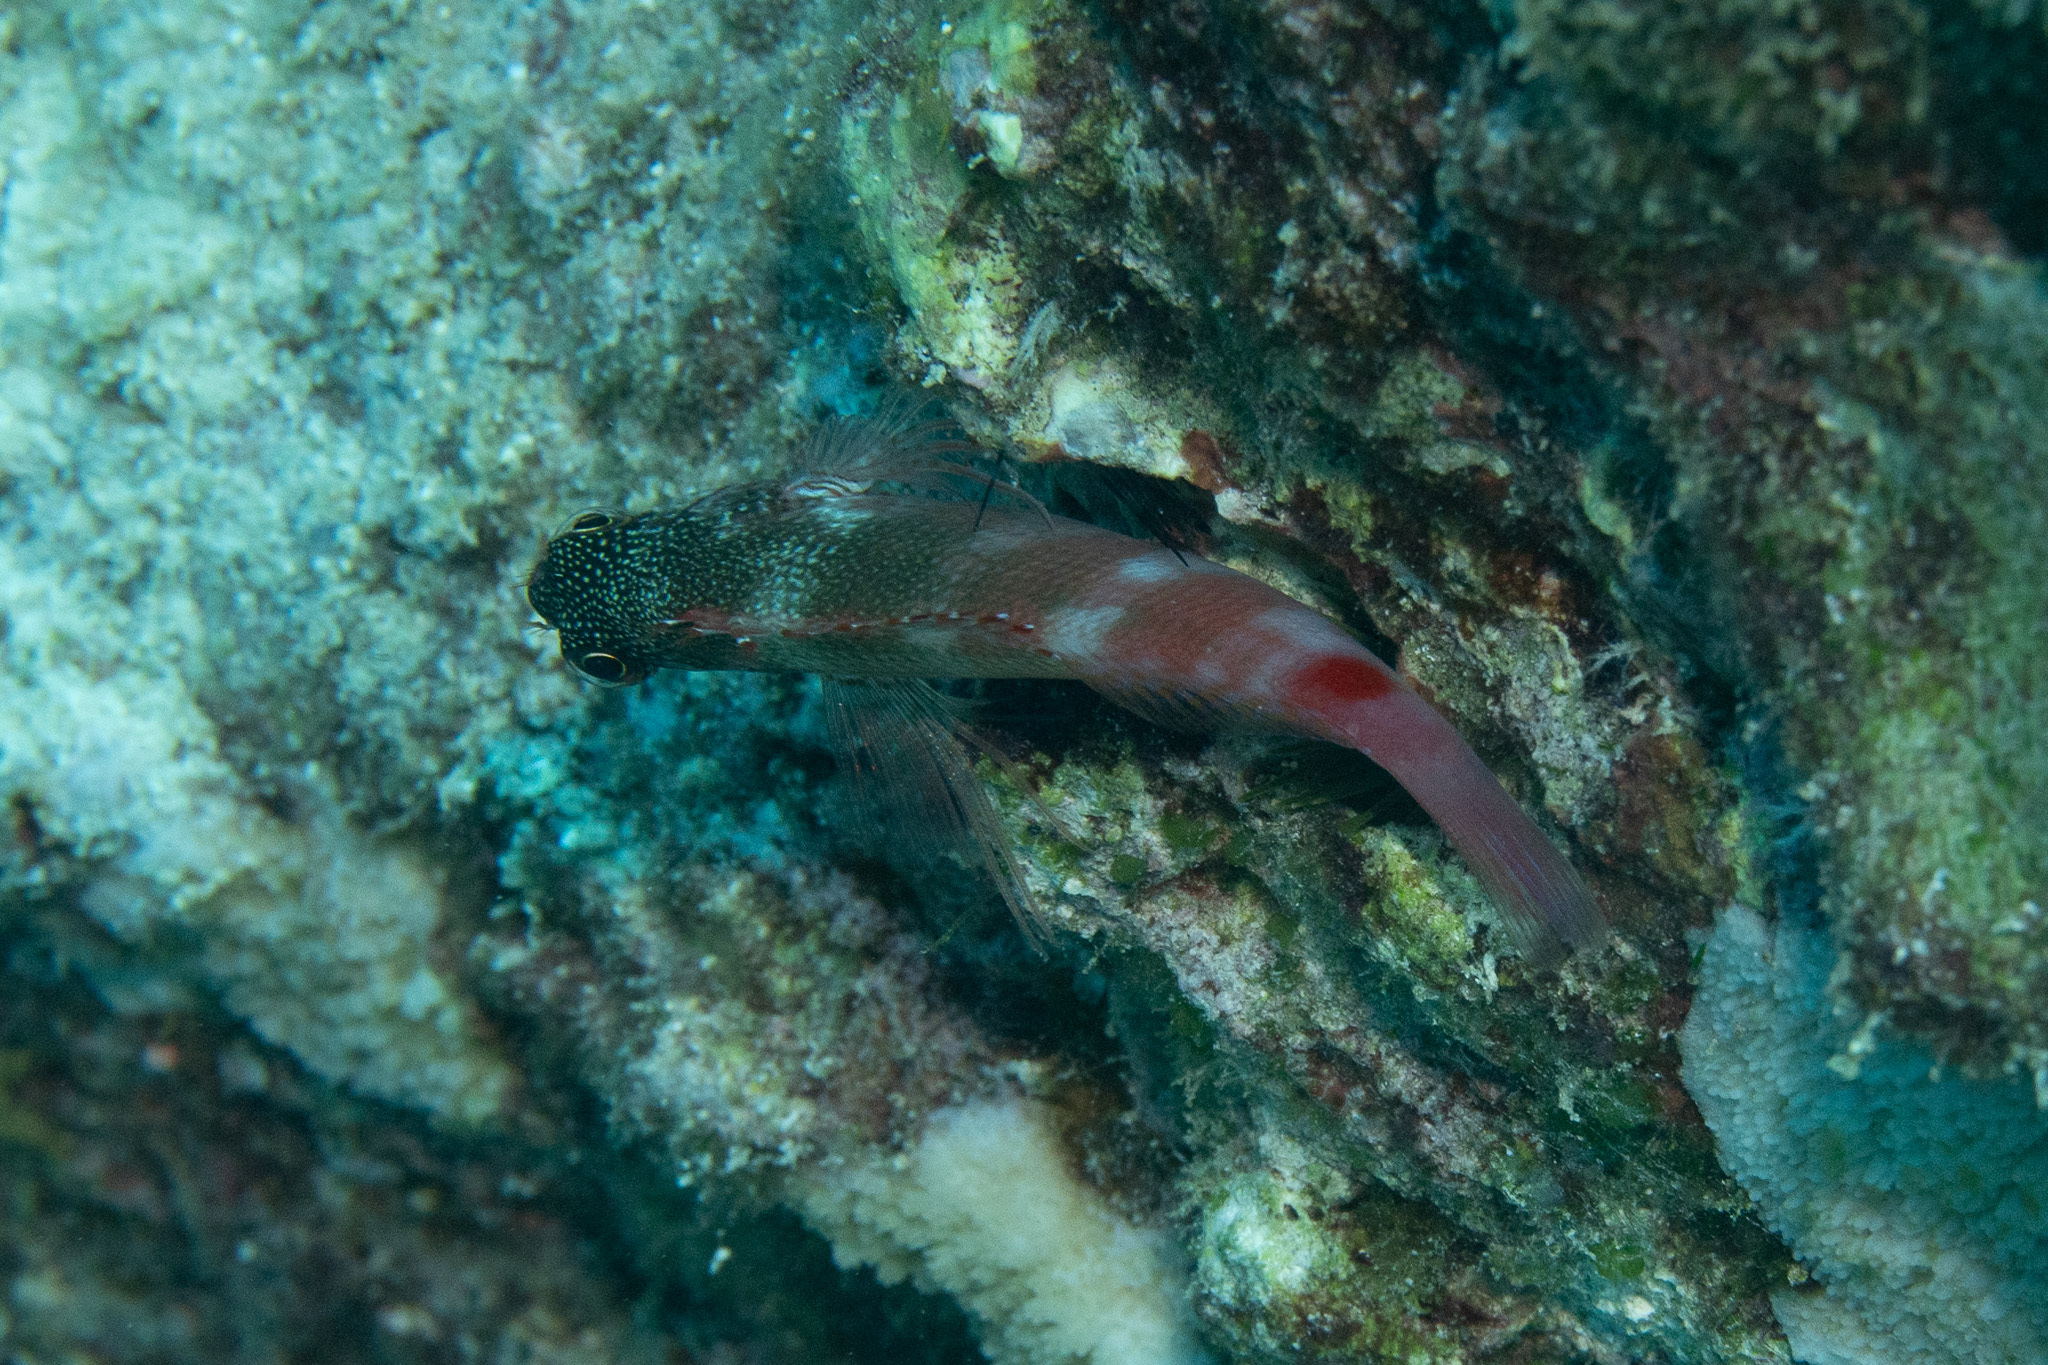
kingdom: Animalia
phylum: Chordata
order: Perciformes
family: Cirrhitidae
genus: Cirrhitops
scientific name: Cirrhitops fasciatus
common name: Redbarred hawkfish
